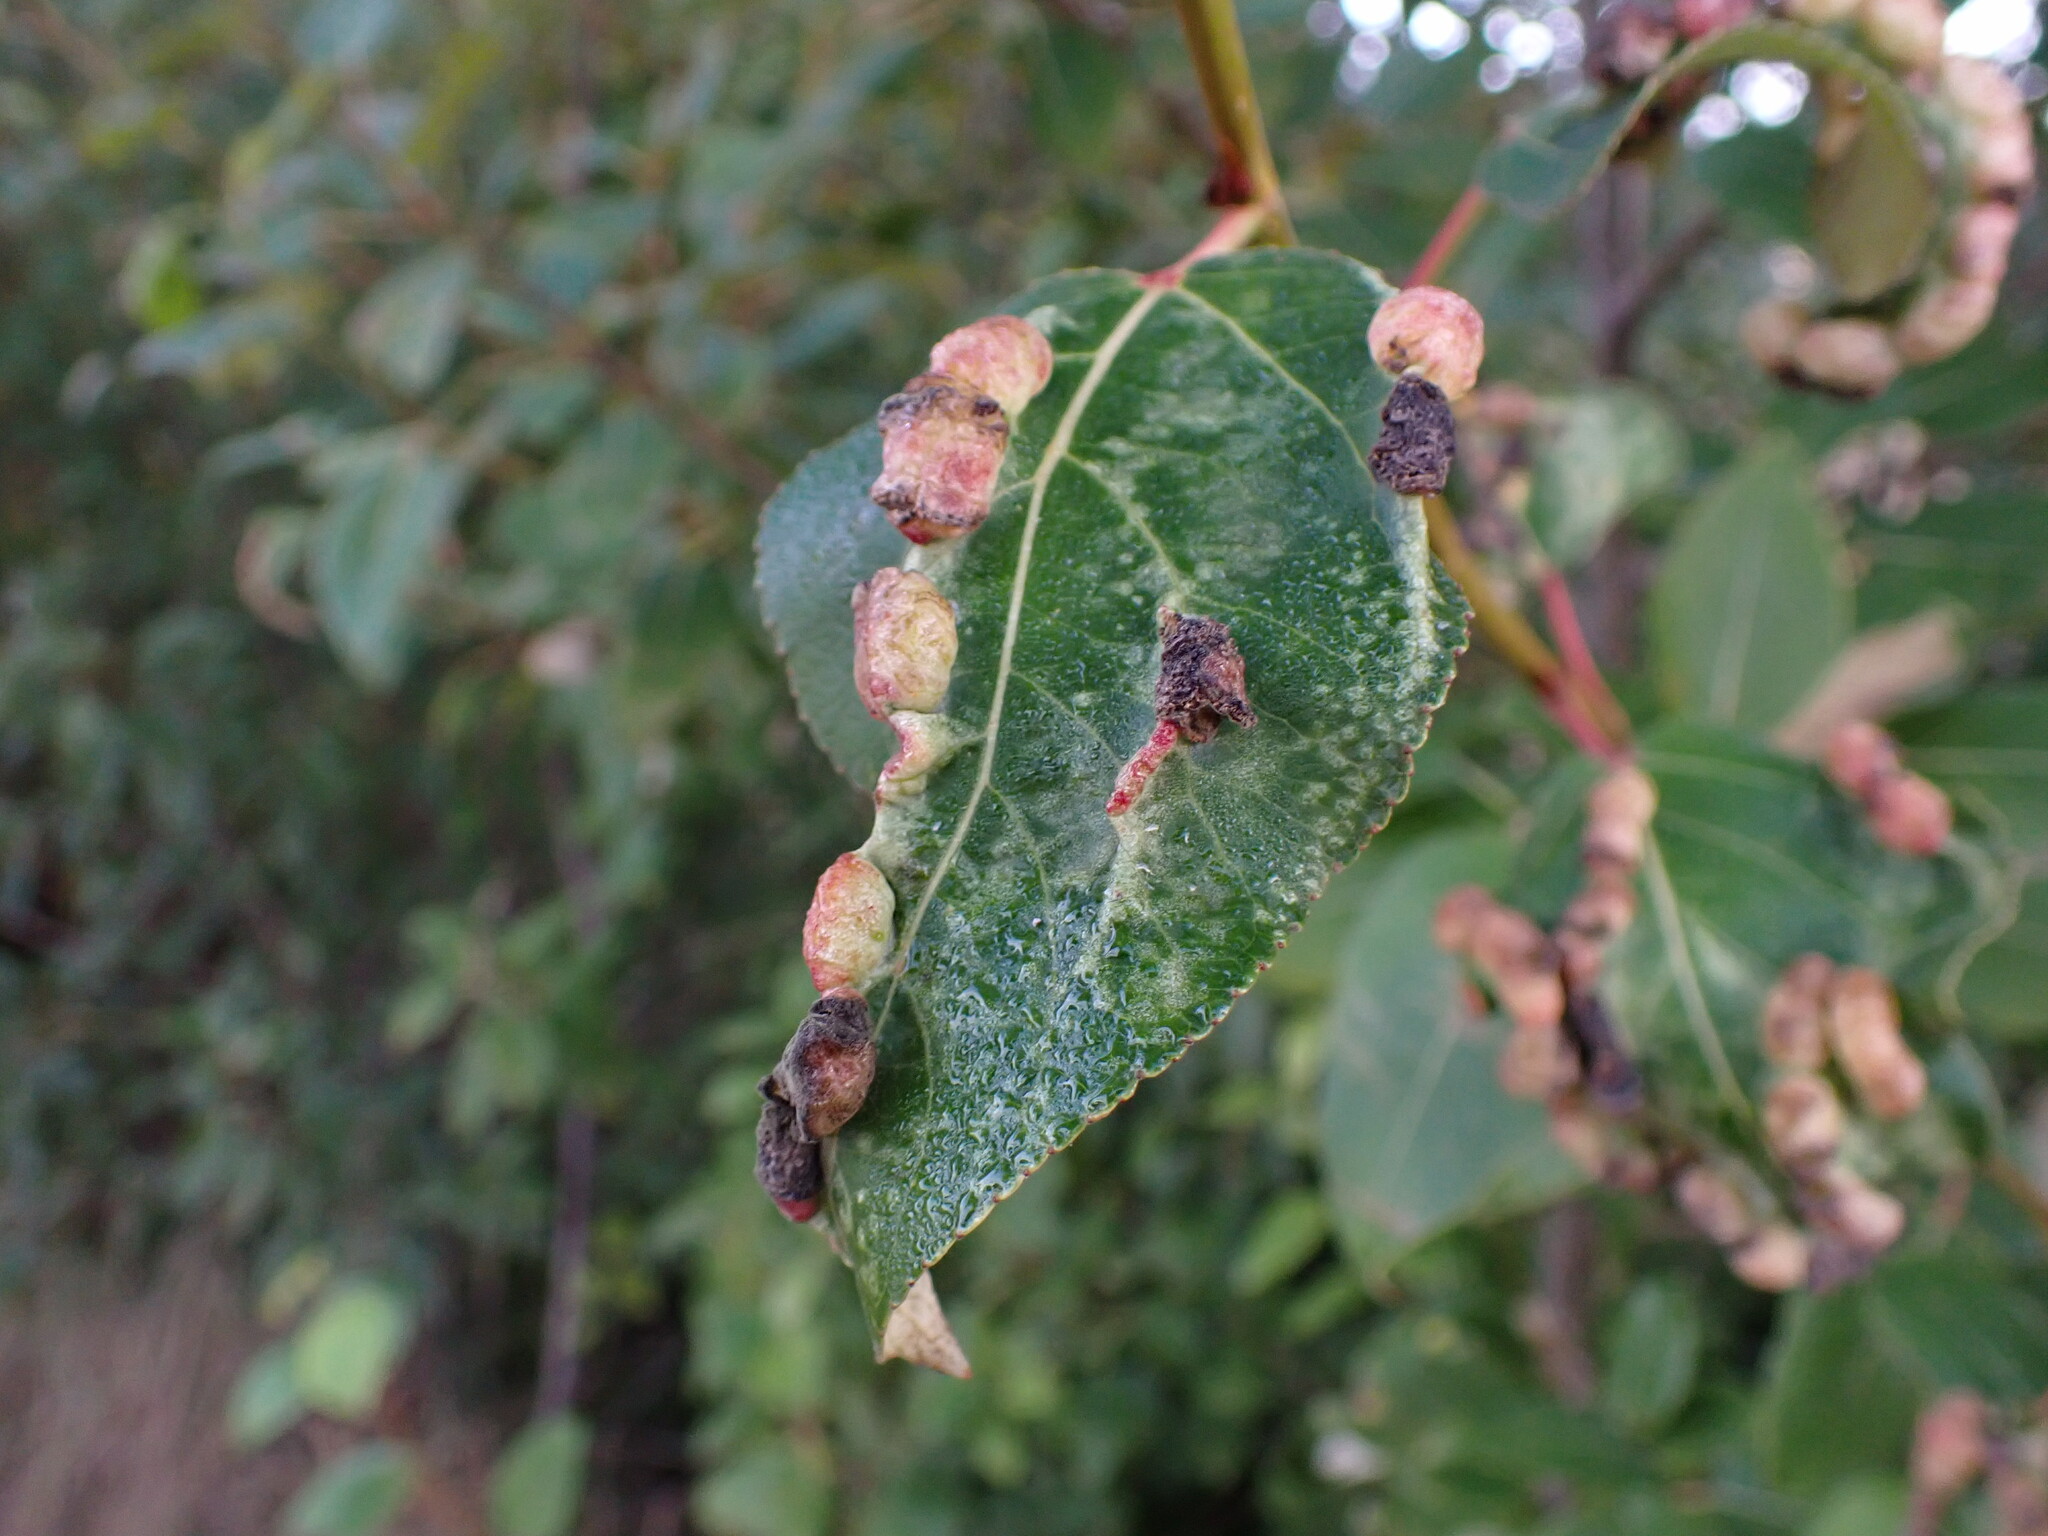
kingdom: Animalia
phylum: Arthropoda
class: Insecta
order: Hemiptera
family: Aphididae
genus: Thecabius
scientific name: Thecabius populimonilis
